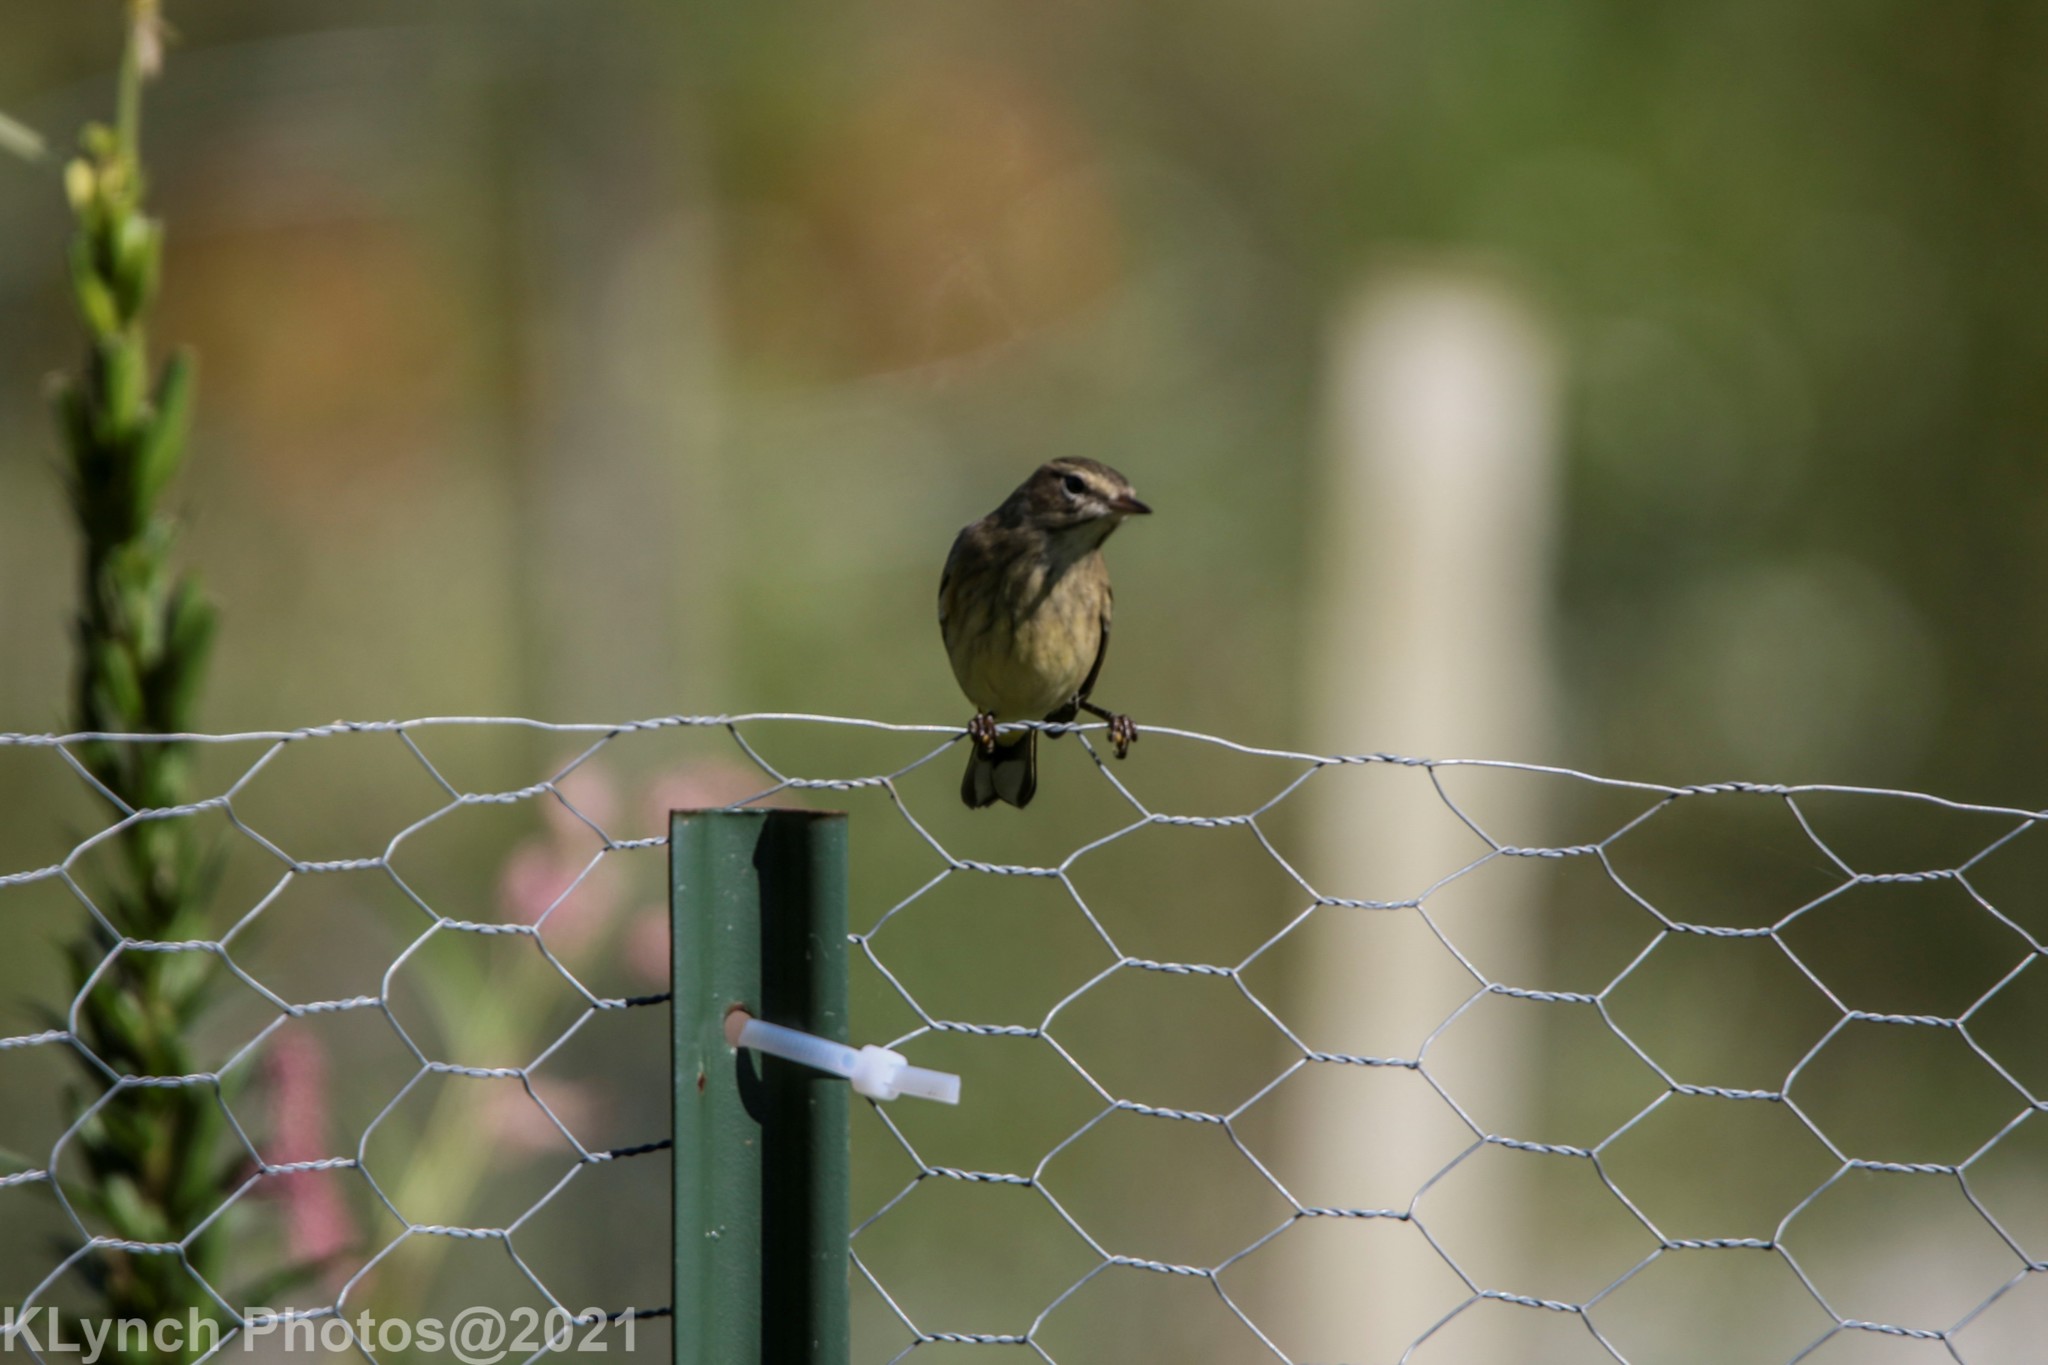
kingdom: Animalia
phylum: Chordata
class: Aves
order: Passeriformes
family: Parulidae
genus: Setophaga
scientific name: Setophaga palmarum
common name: Palm warbler
